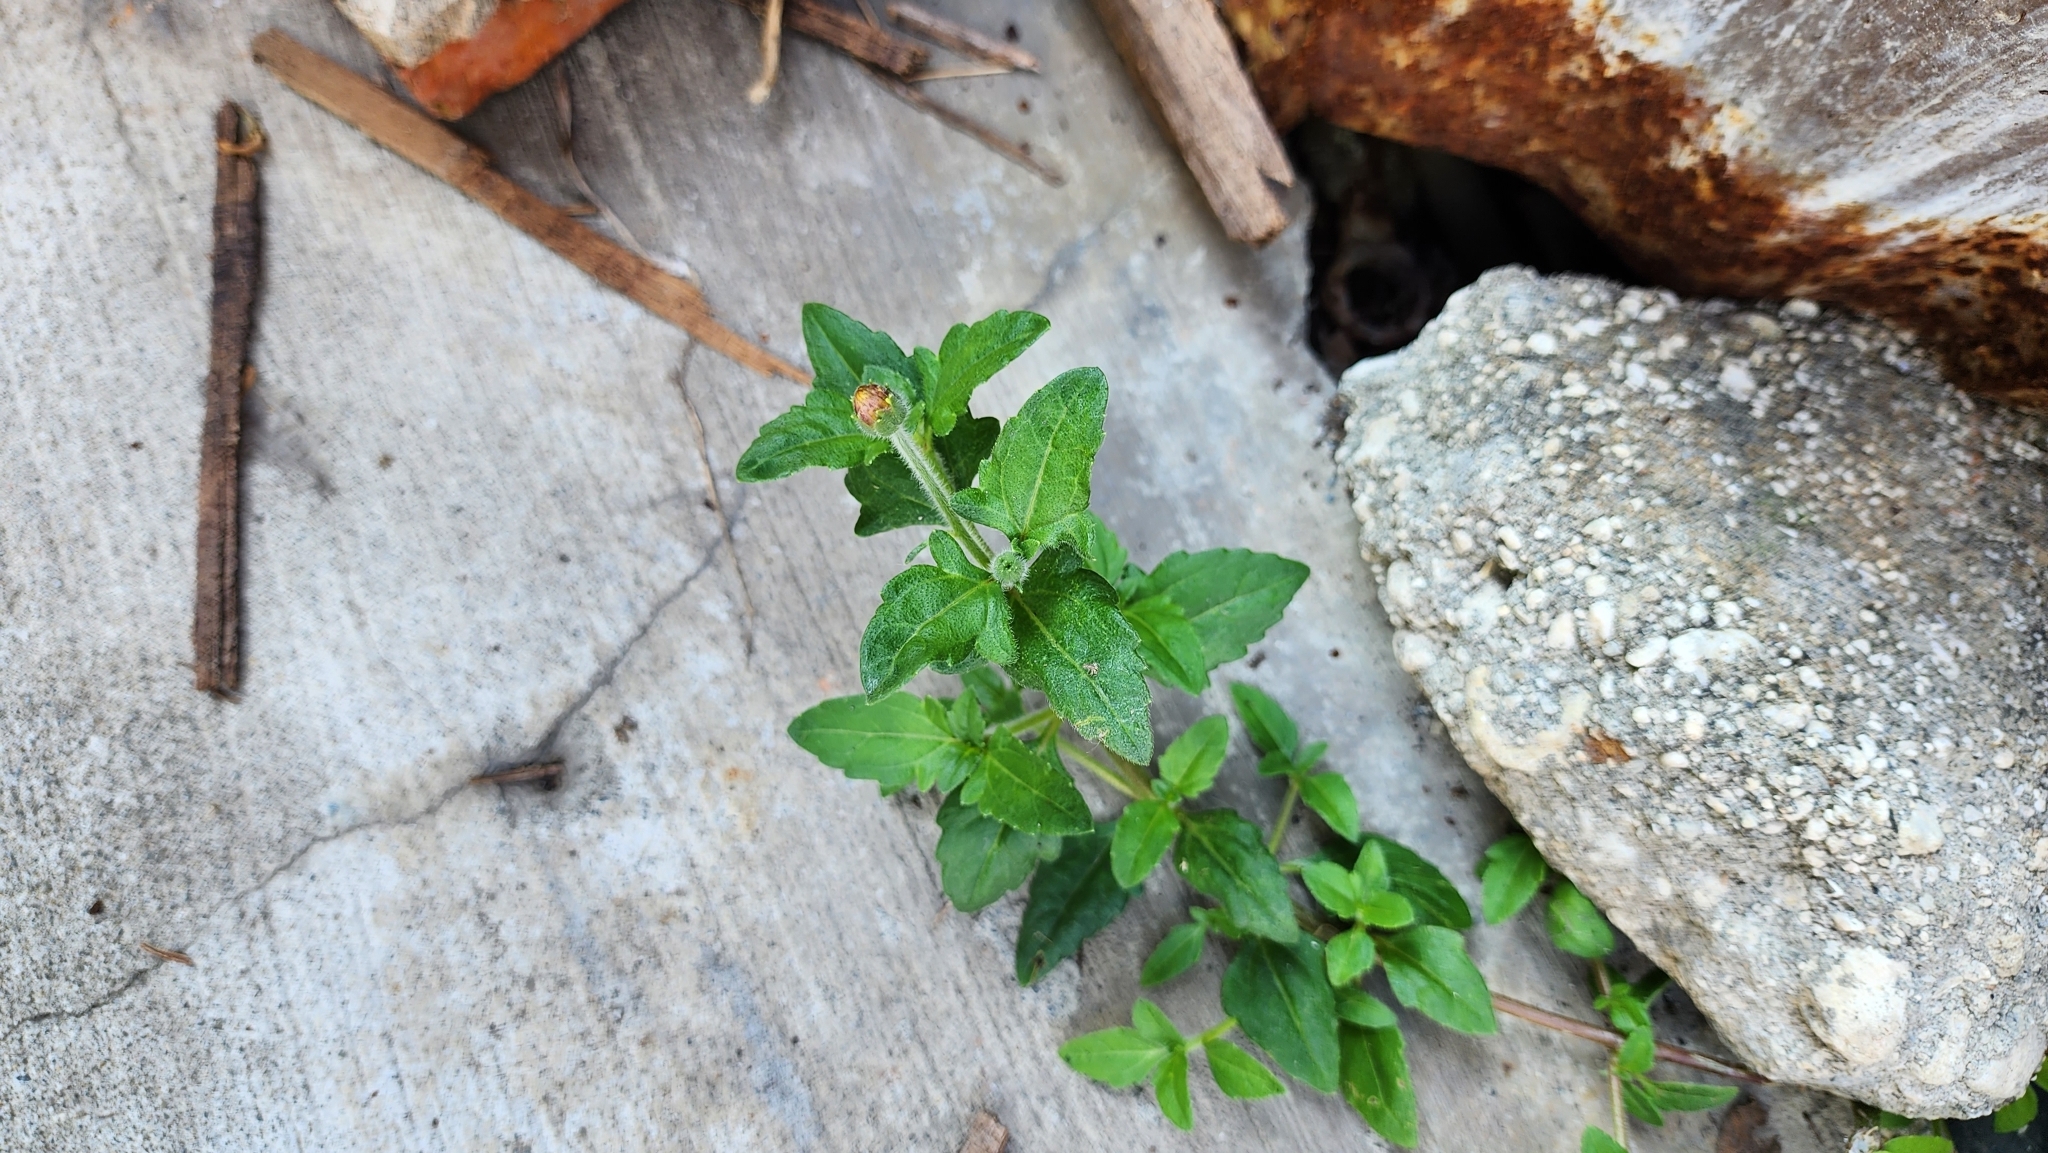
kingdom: Plantae
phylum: Tracheophyta
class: Magnoliopsida
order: Asterales
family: Asteraceae
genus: Tridax
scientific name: Tridax procumbens
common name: Coatbuttons
